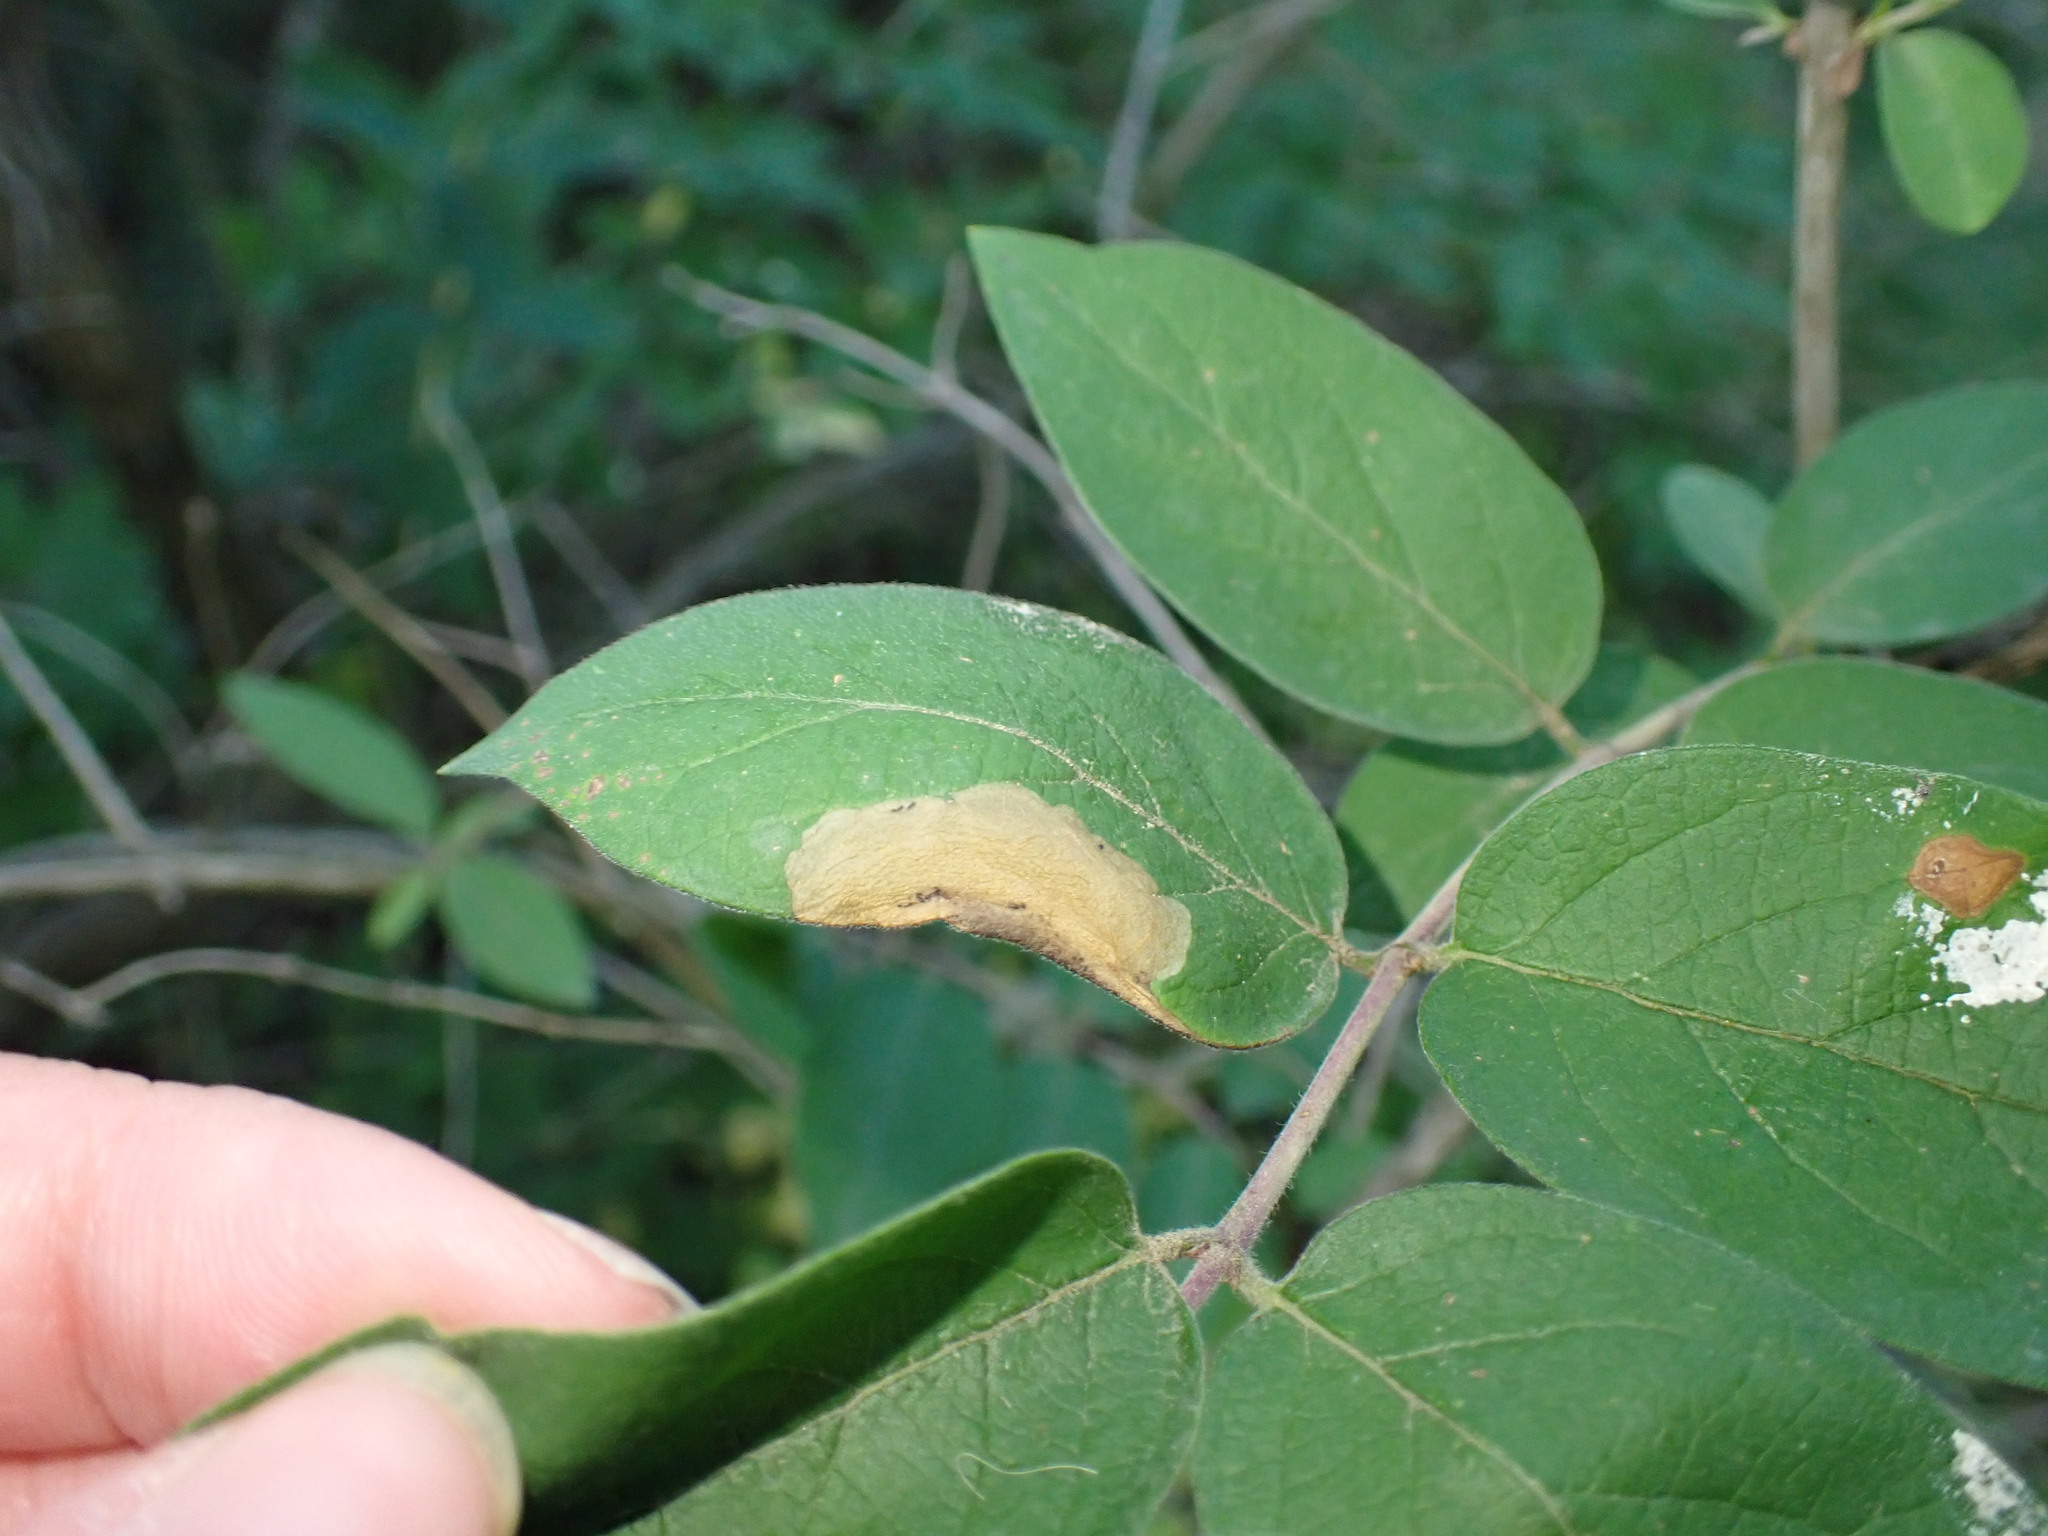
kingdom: Animalia
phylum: Arthropoda
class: Insecta
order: Lepidoptera
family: Elachistidae
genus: Perittia
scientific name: Perittia herrichiella
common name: Moth
